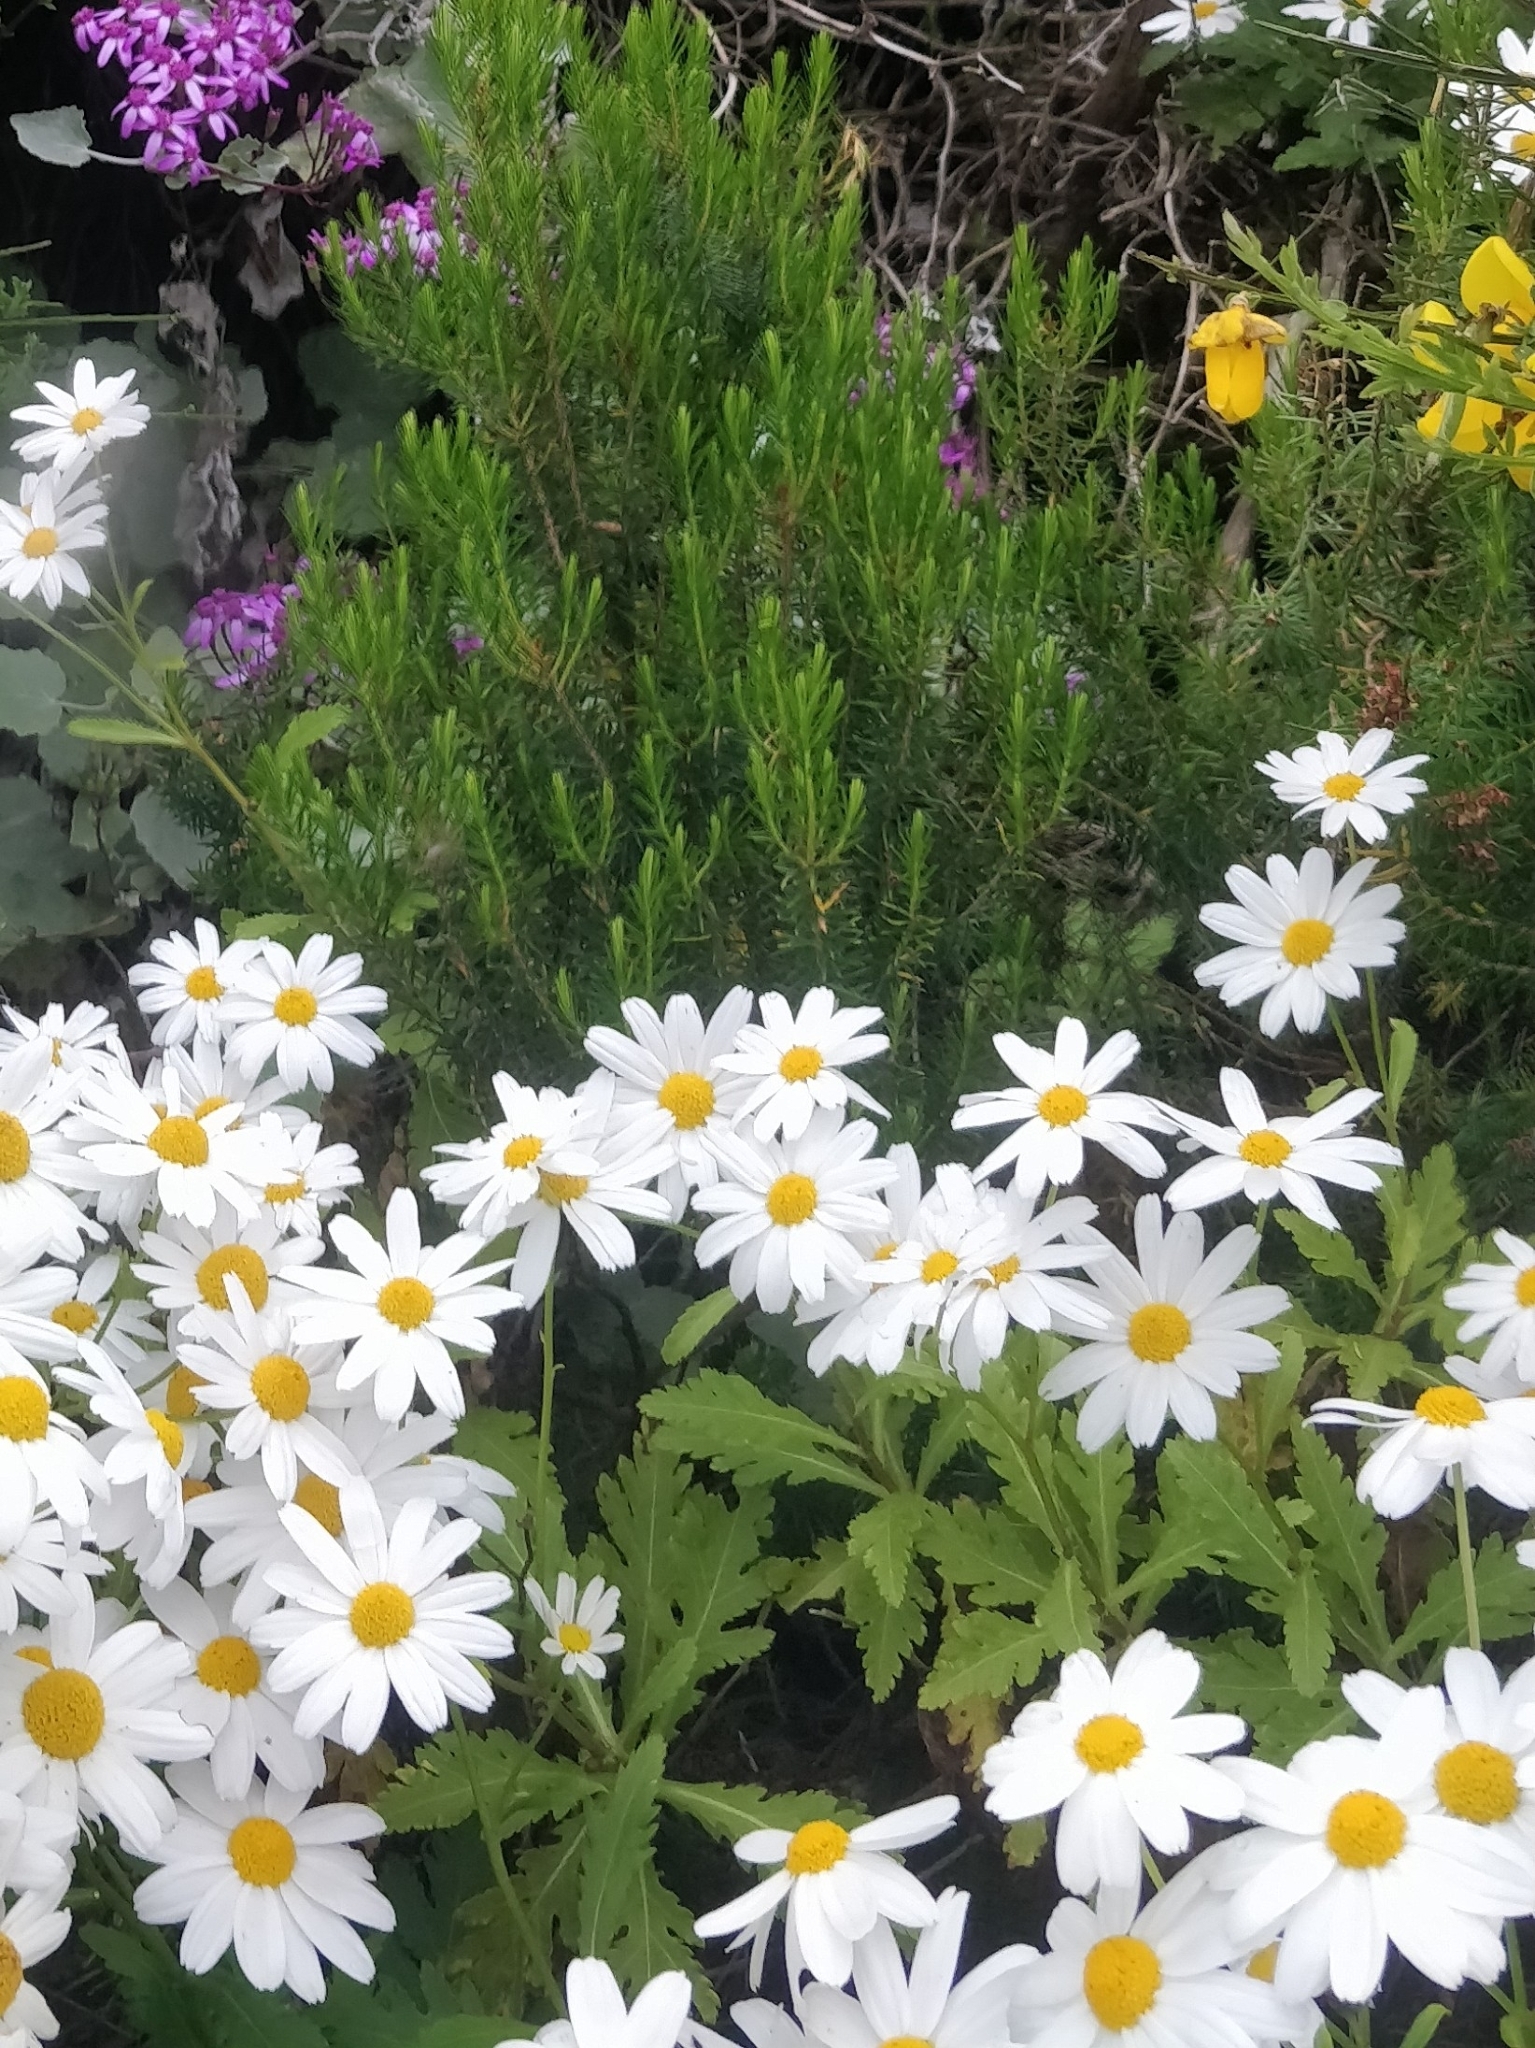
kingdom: Plantae
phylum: Tracheophyta
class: Magnoliopsida
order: Asterales
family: Asteraceae
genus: Argyranthemum
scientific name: Argyranthemum pinnatifidum
